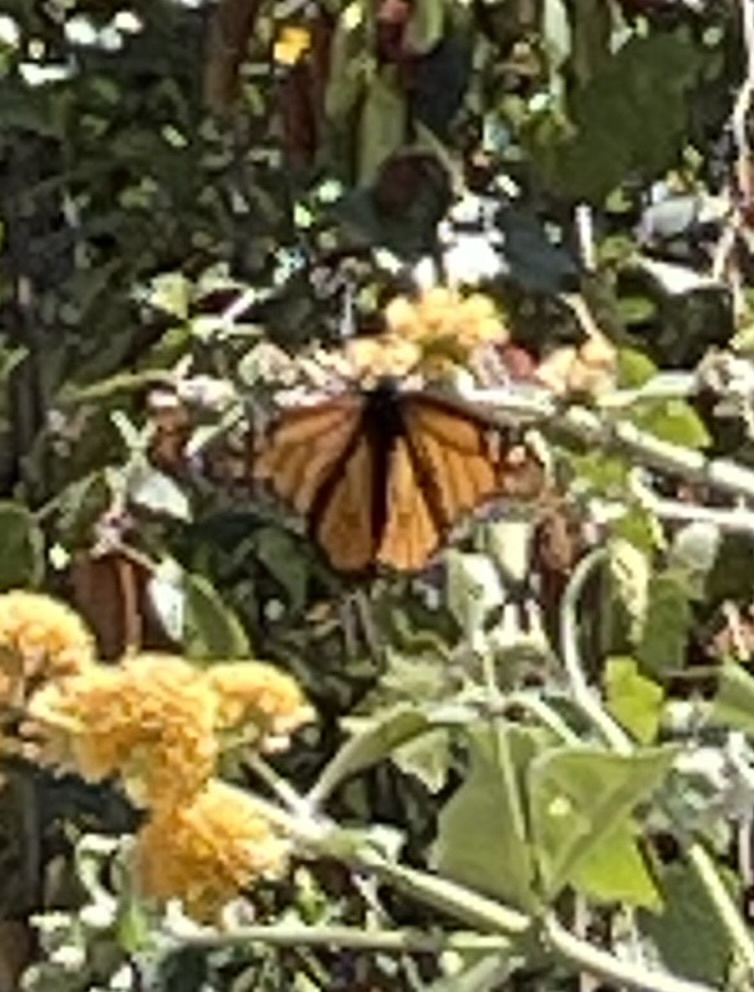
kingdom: Animalia
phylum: Arthropoda
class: Insecta
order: Lepidoptera
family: Nymphalidae
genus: Danaus
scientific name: Danaus plexippus
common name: Monarch
